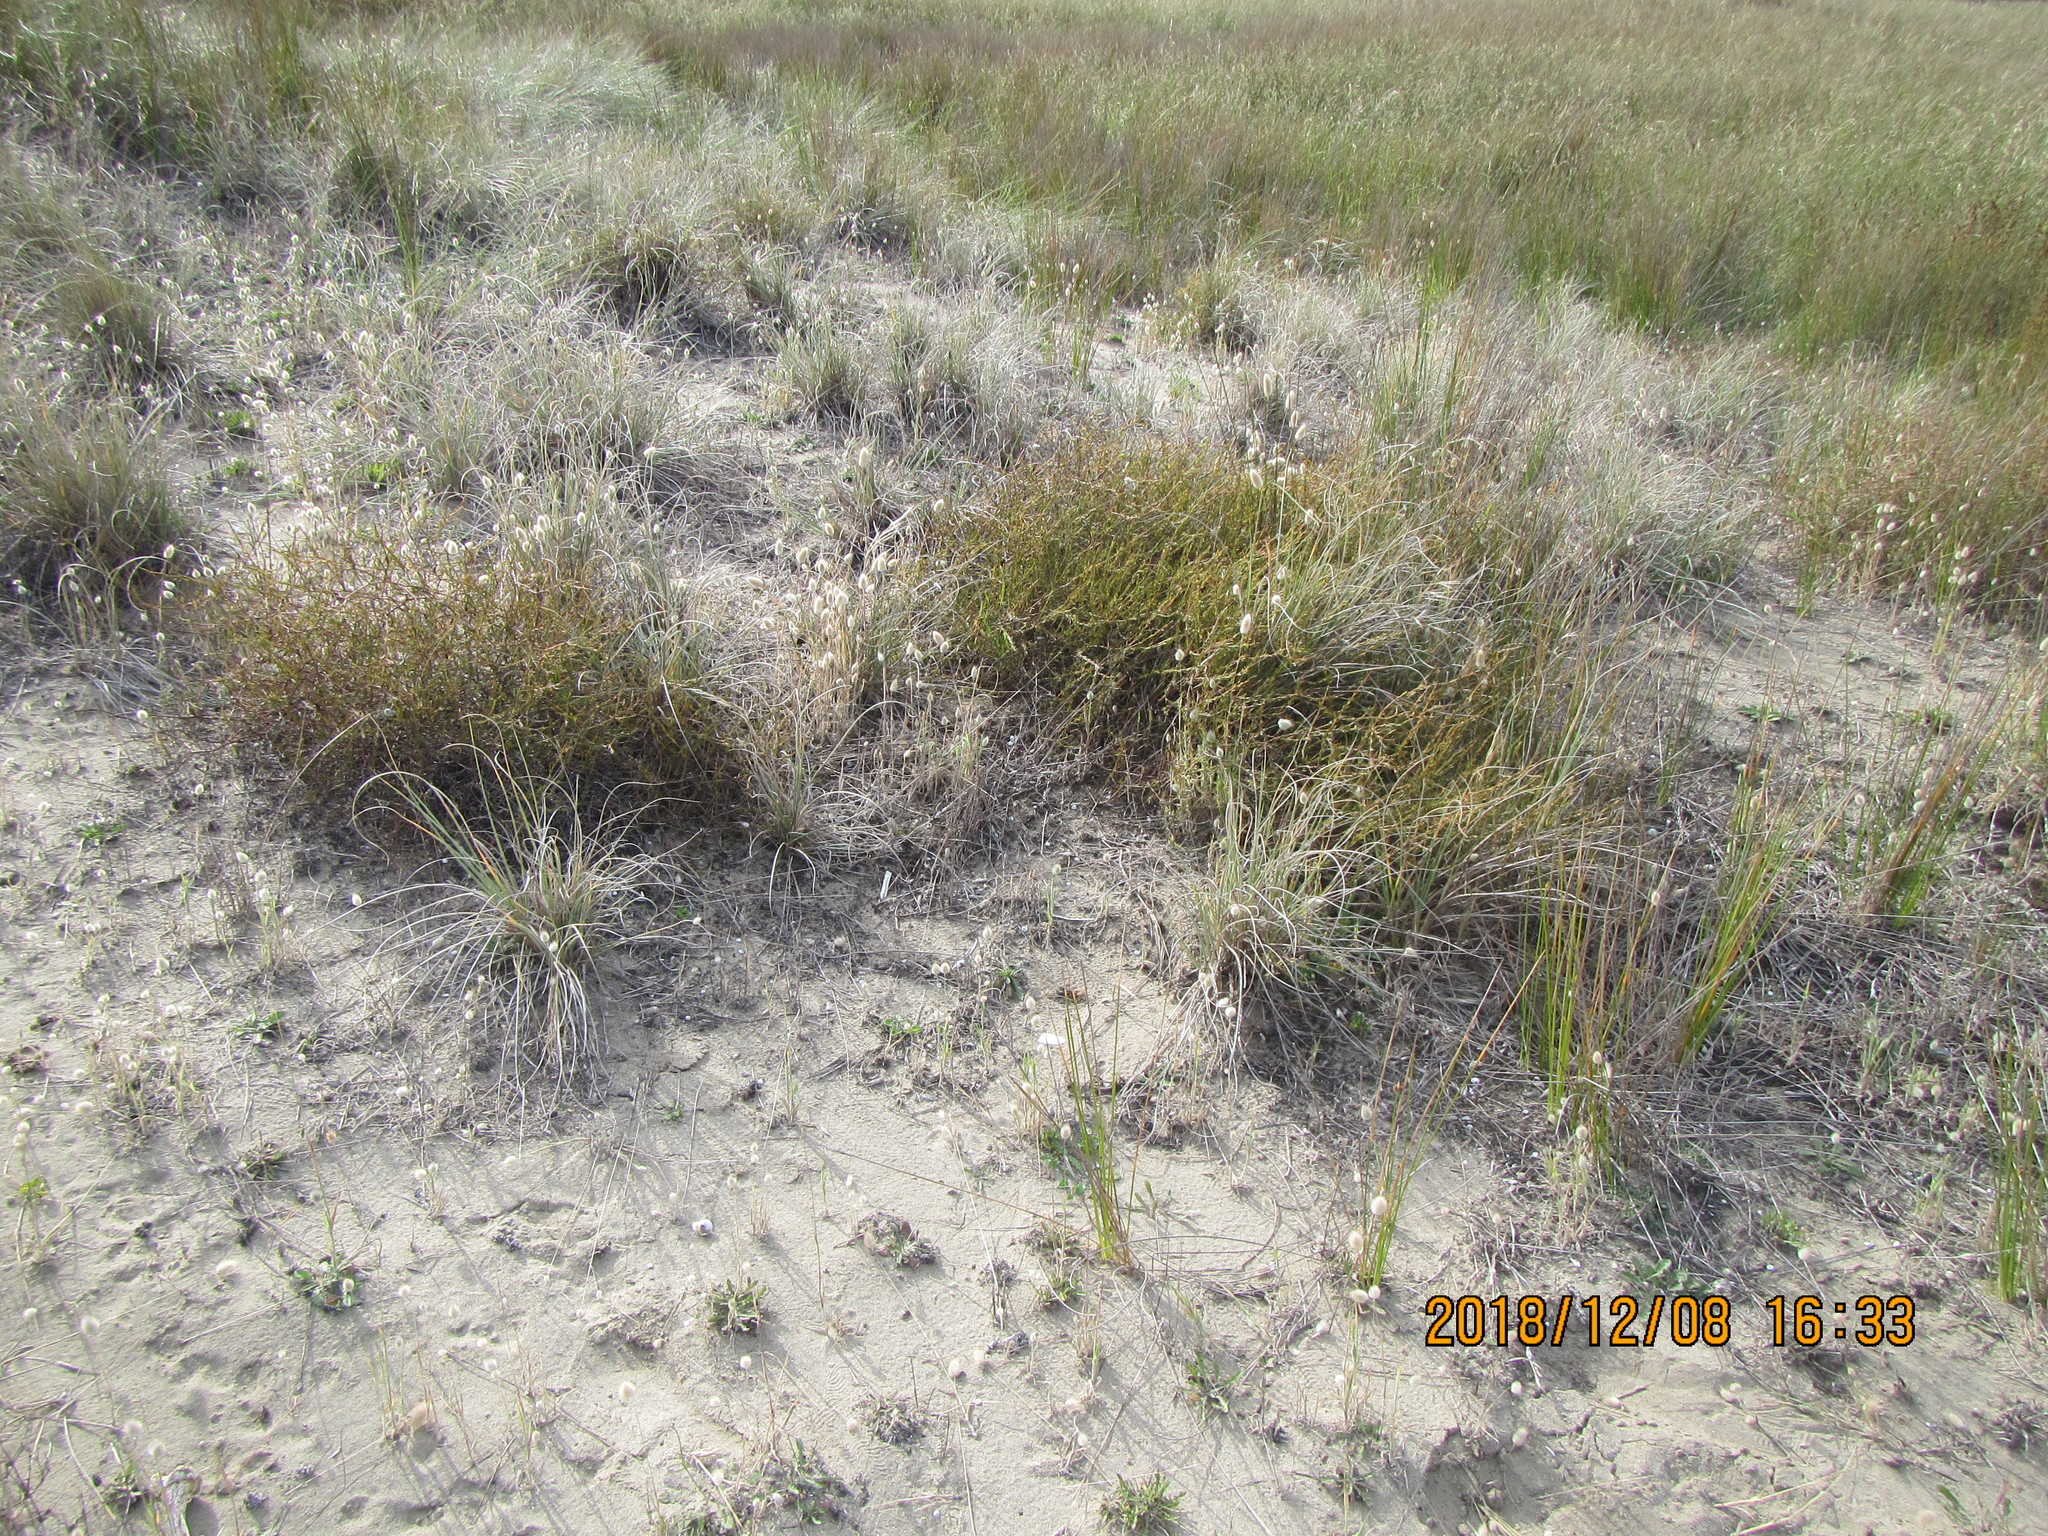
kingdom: Plantae
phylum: Tracheophyta
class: Magnoliopsida
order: Gentianales
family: Rubiaceae
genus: Coprosma
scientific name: Coprosma acerosa
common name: Sand coprosma
